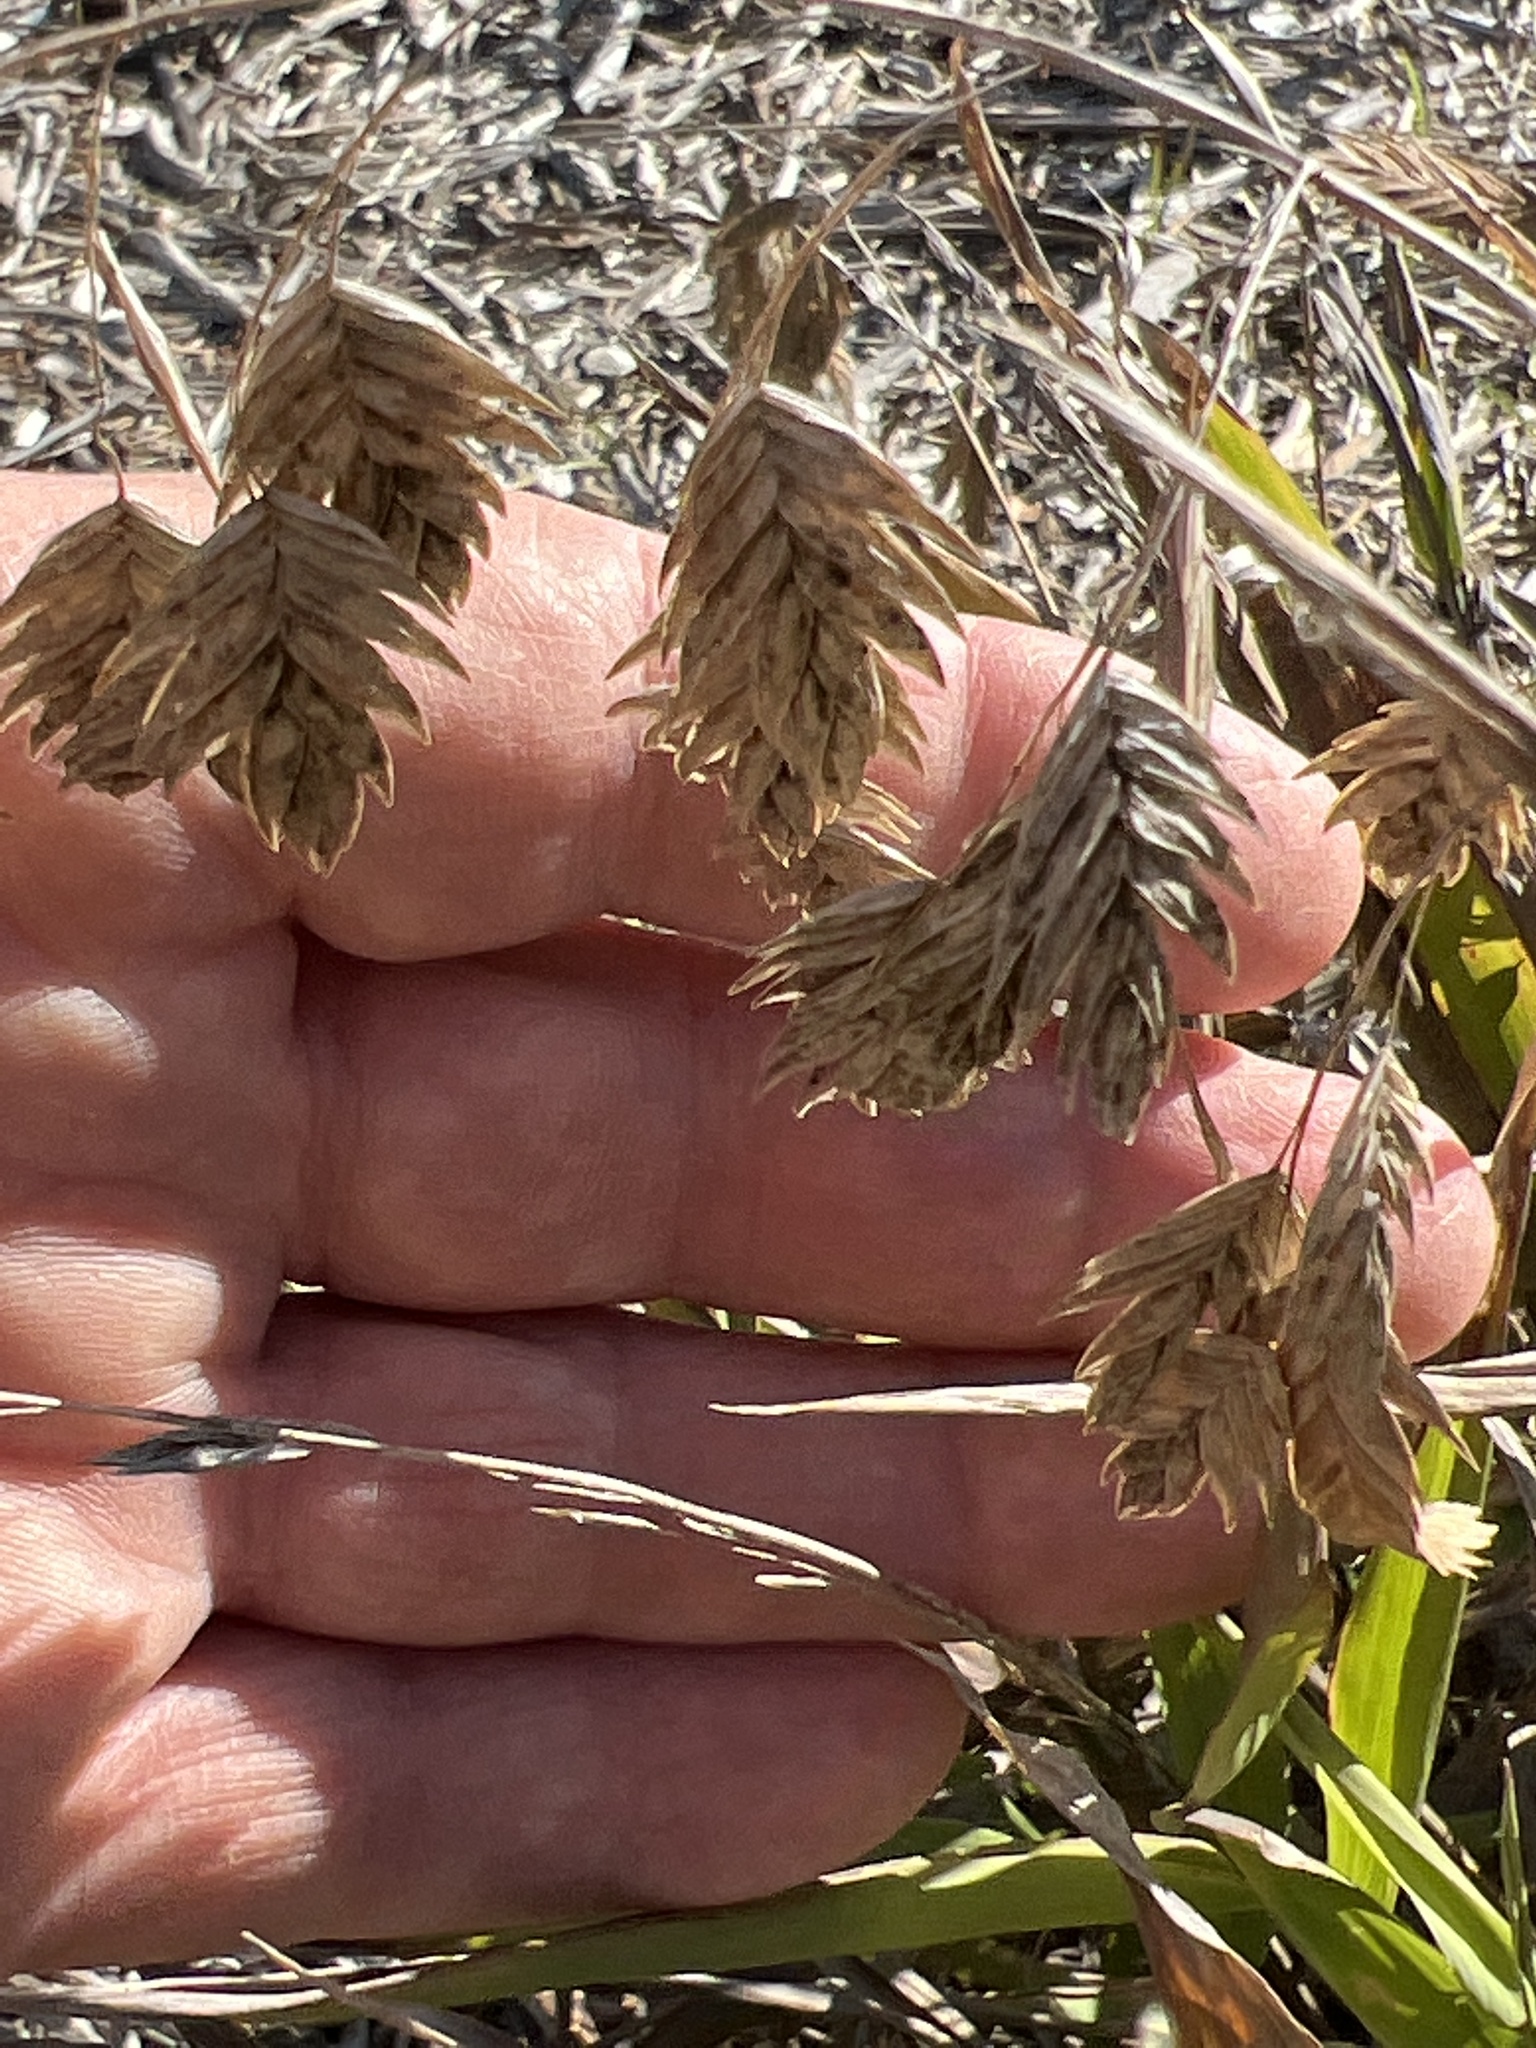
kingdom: Plantae
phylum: Tracheophyta
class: Liliopsida
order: Poales
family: Poaceae
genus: Chasmanthium
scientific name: Chasmanthium latifolium
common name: Broad-leaved chasmanthium
